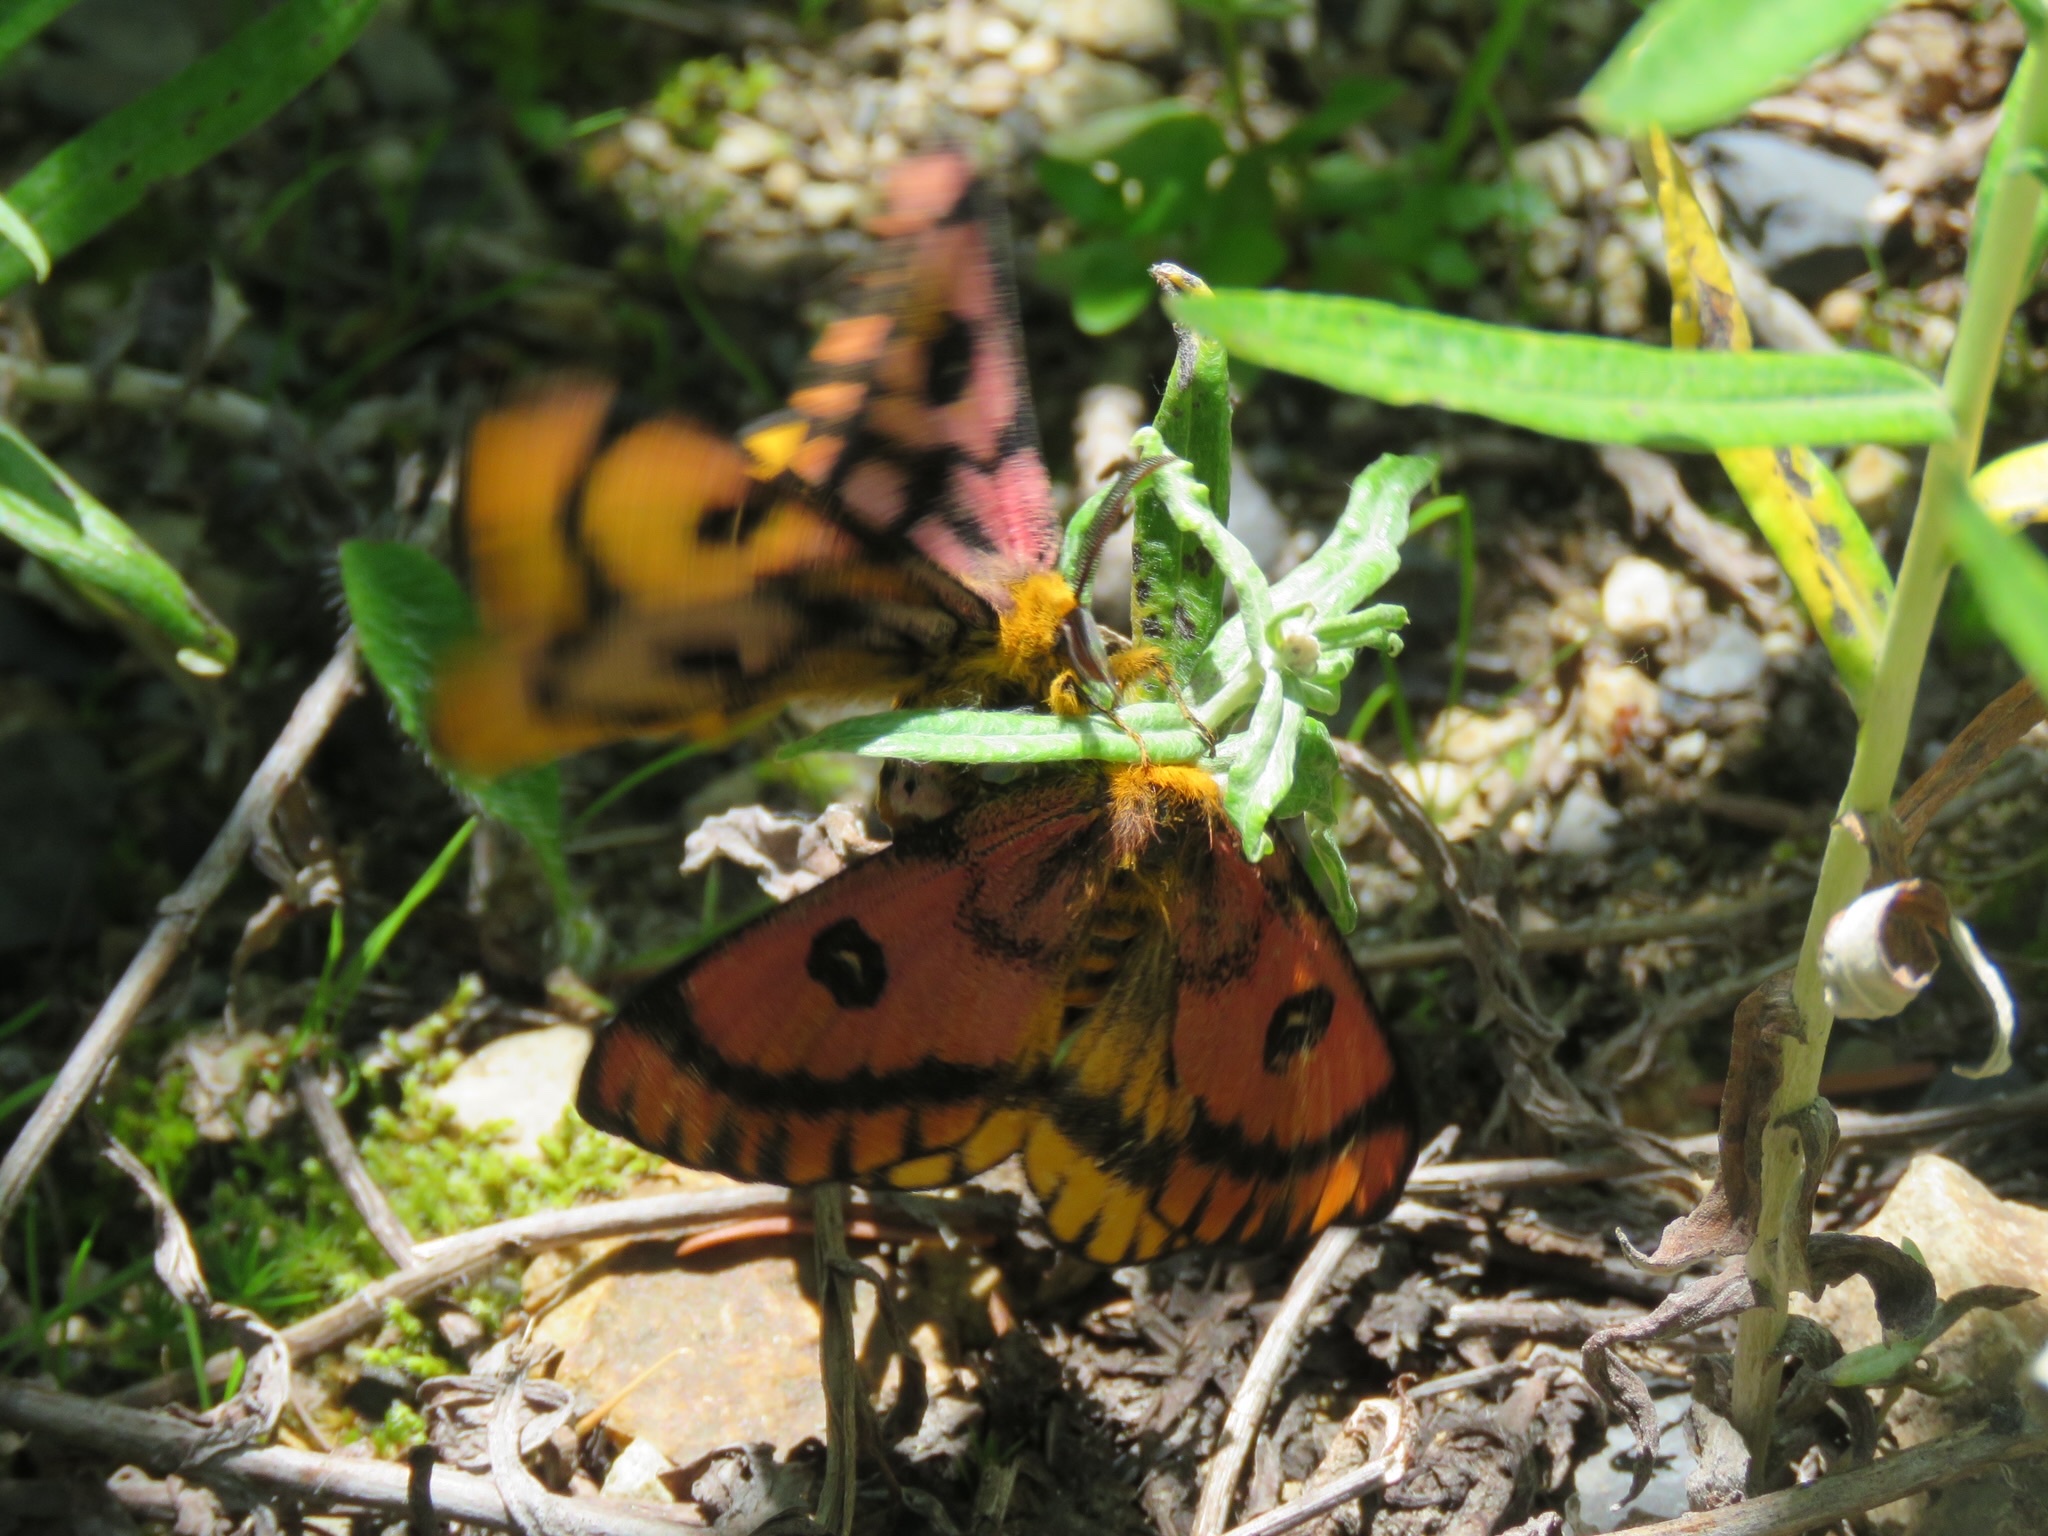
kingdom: Animalia
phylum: Arthropoda
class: Insecta
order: Lepidoptera
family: Saturniidae
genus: Hemileuca
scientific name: Hemileuca eglanterina
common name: Western sheepmoth
